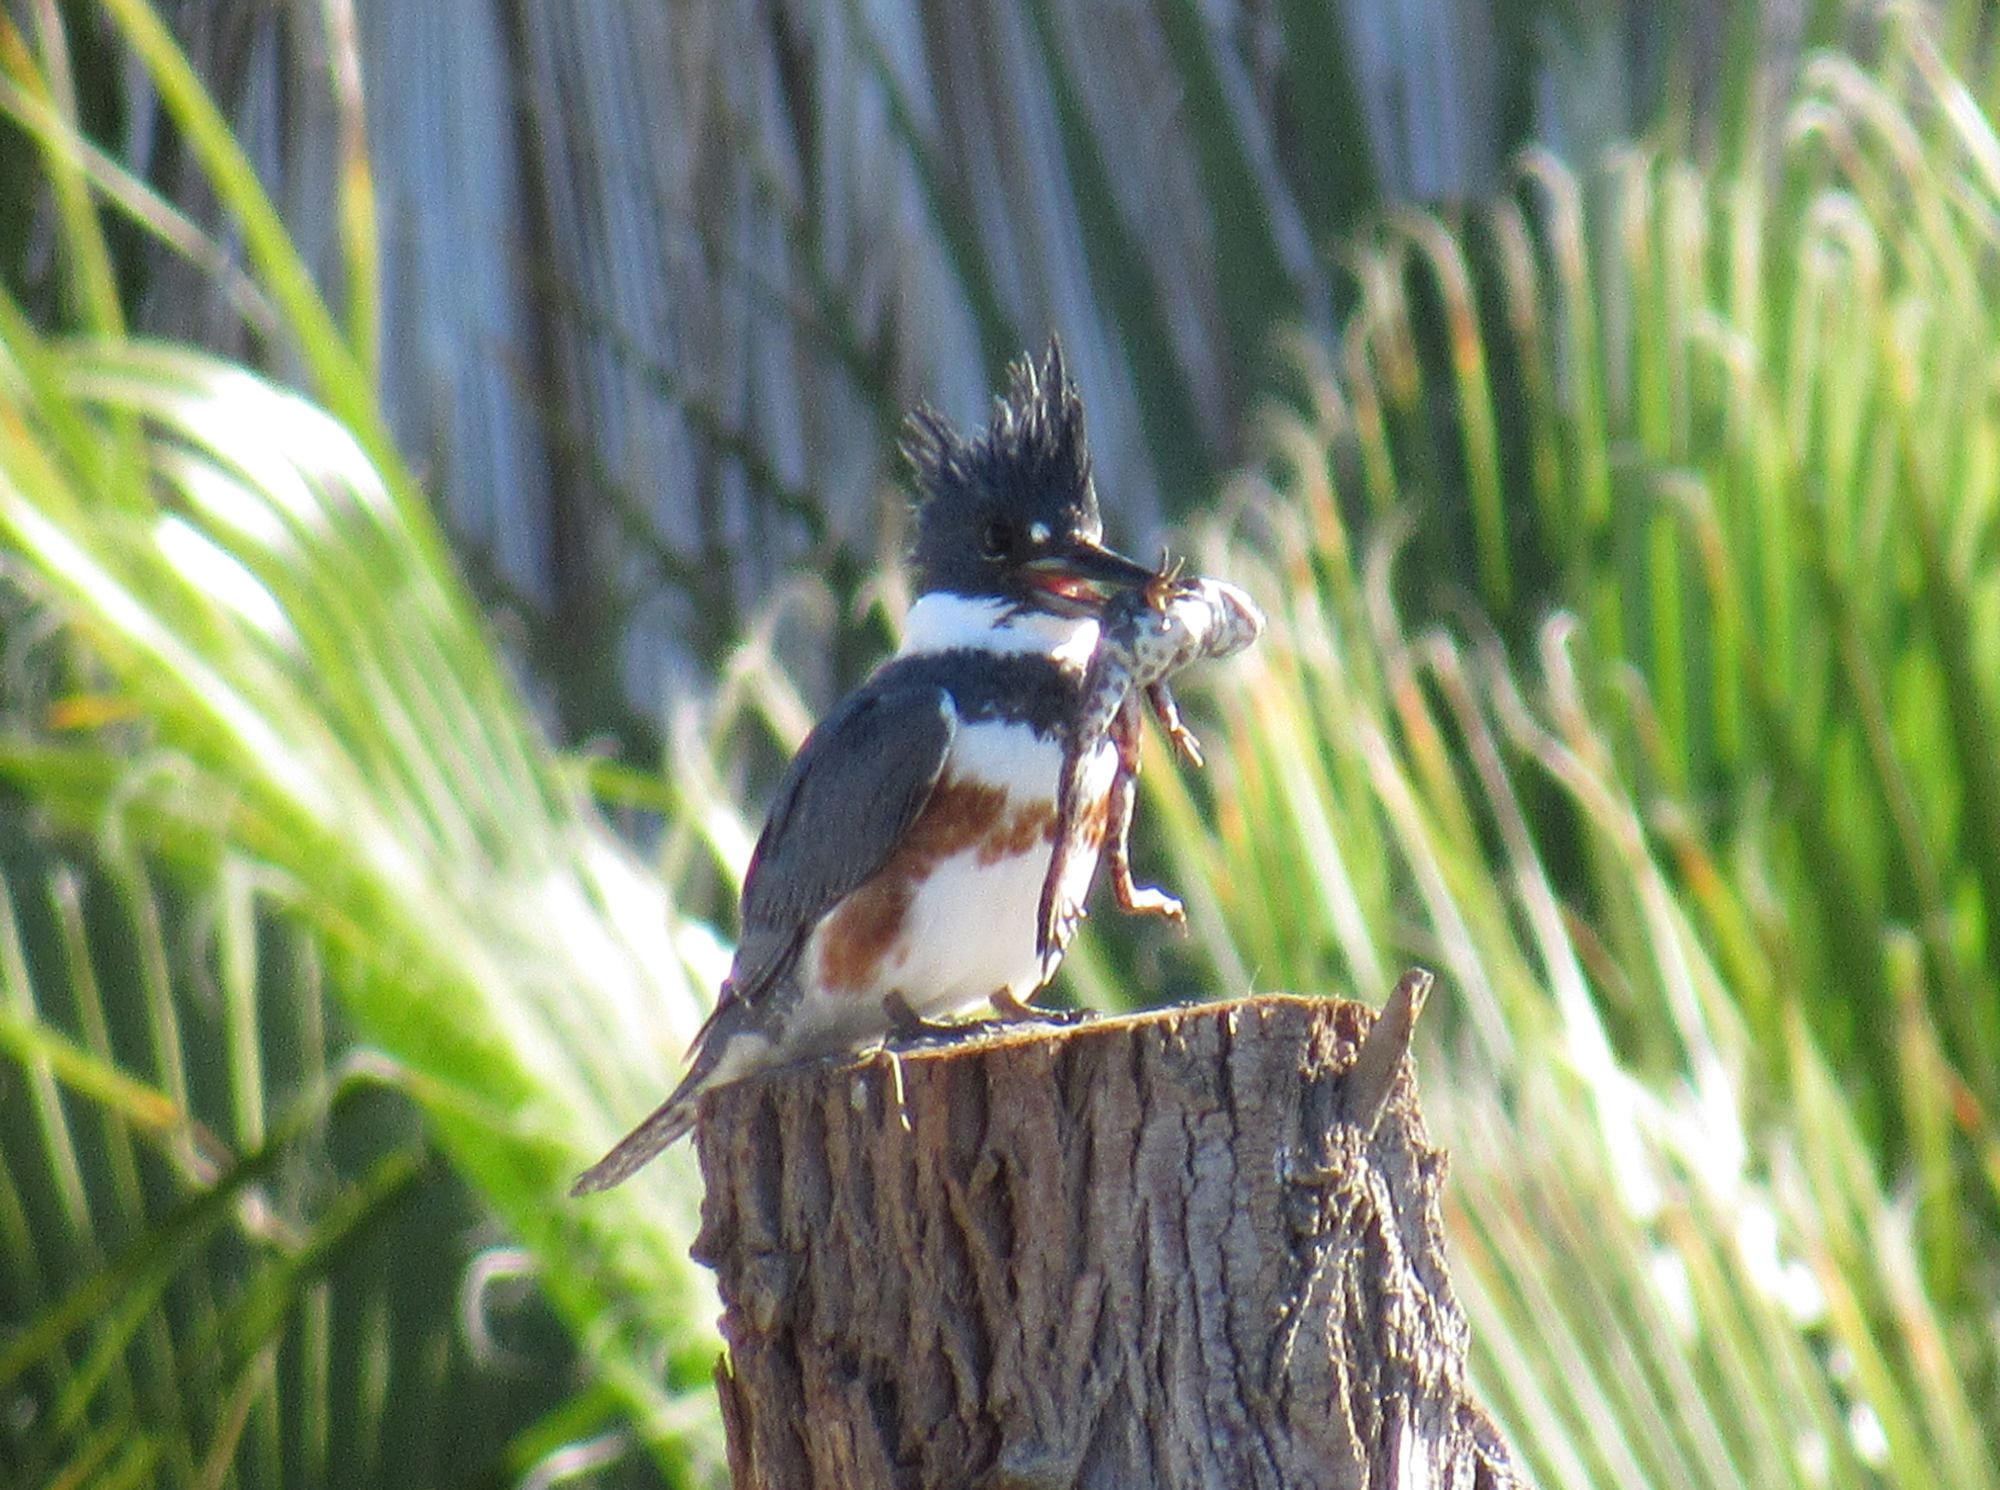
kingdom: Animalia
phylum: Chordata
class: Aves
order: Coraciiformes
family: Alcedinidae
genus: Megaceryle
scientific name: Megaceryle alcyon
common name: Belted kingfisher
